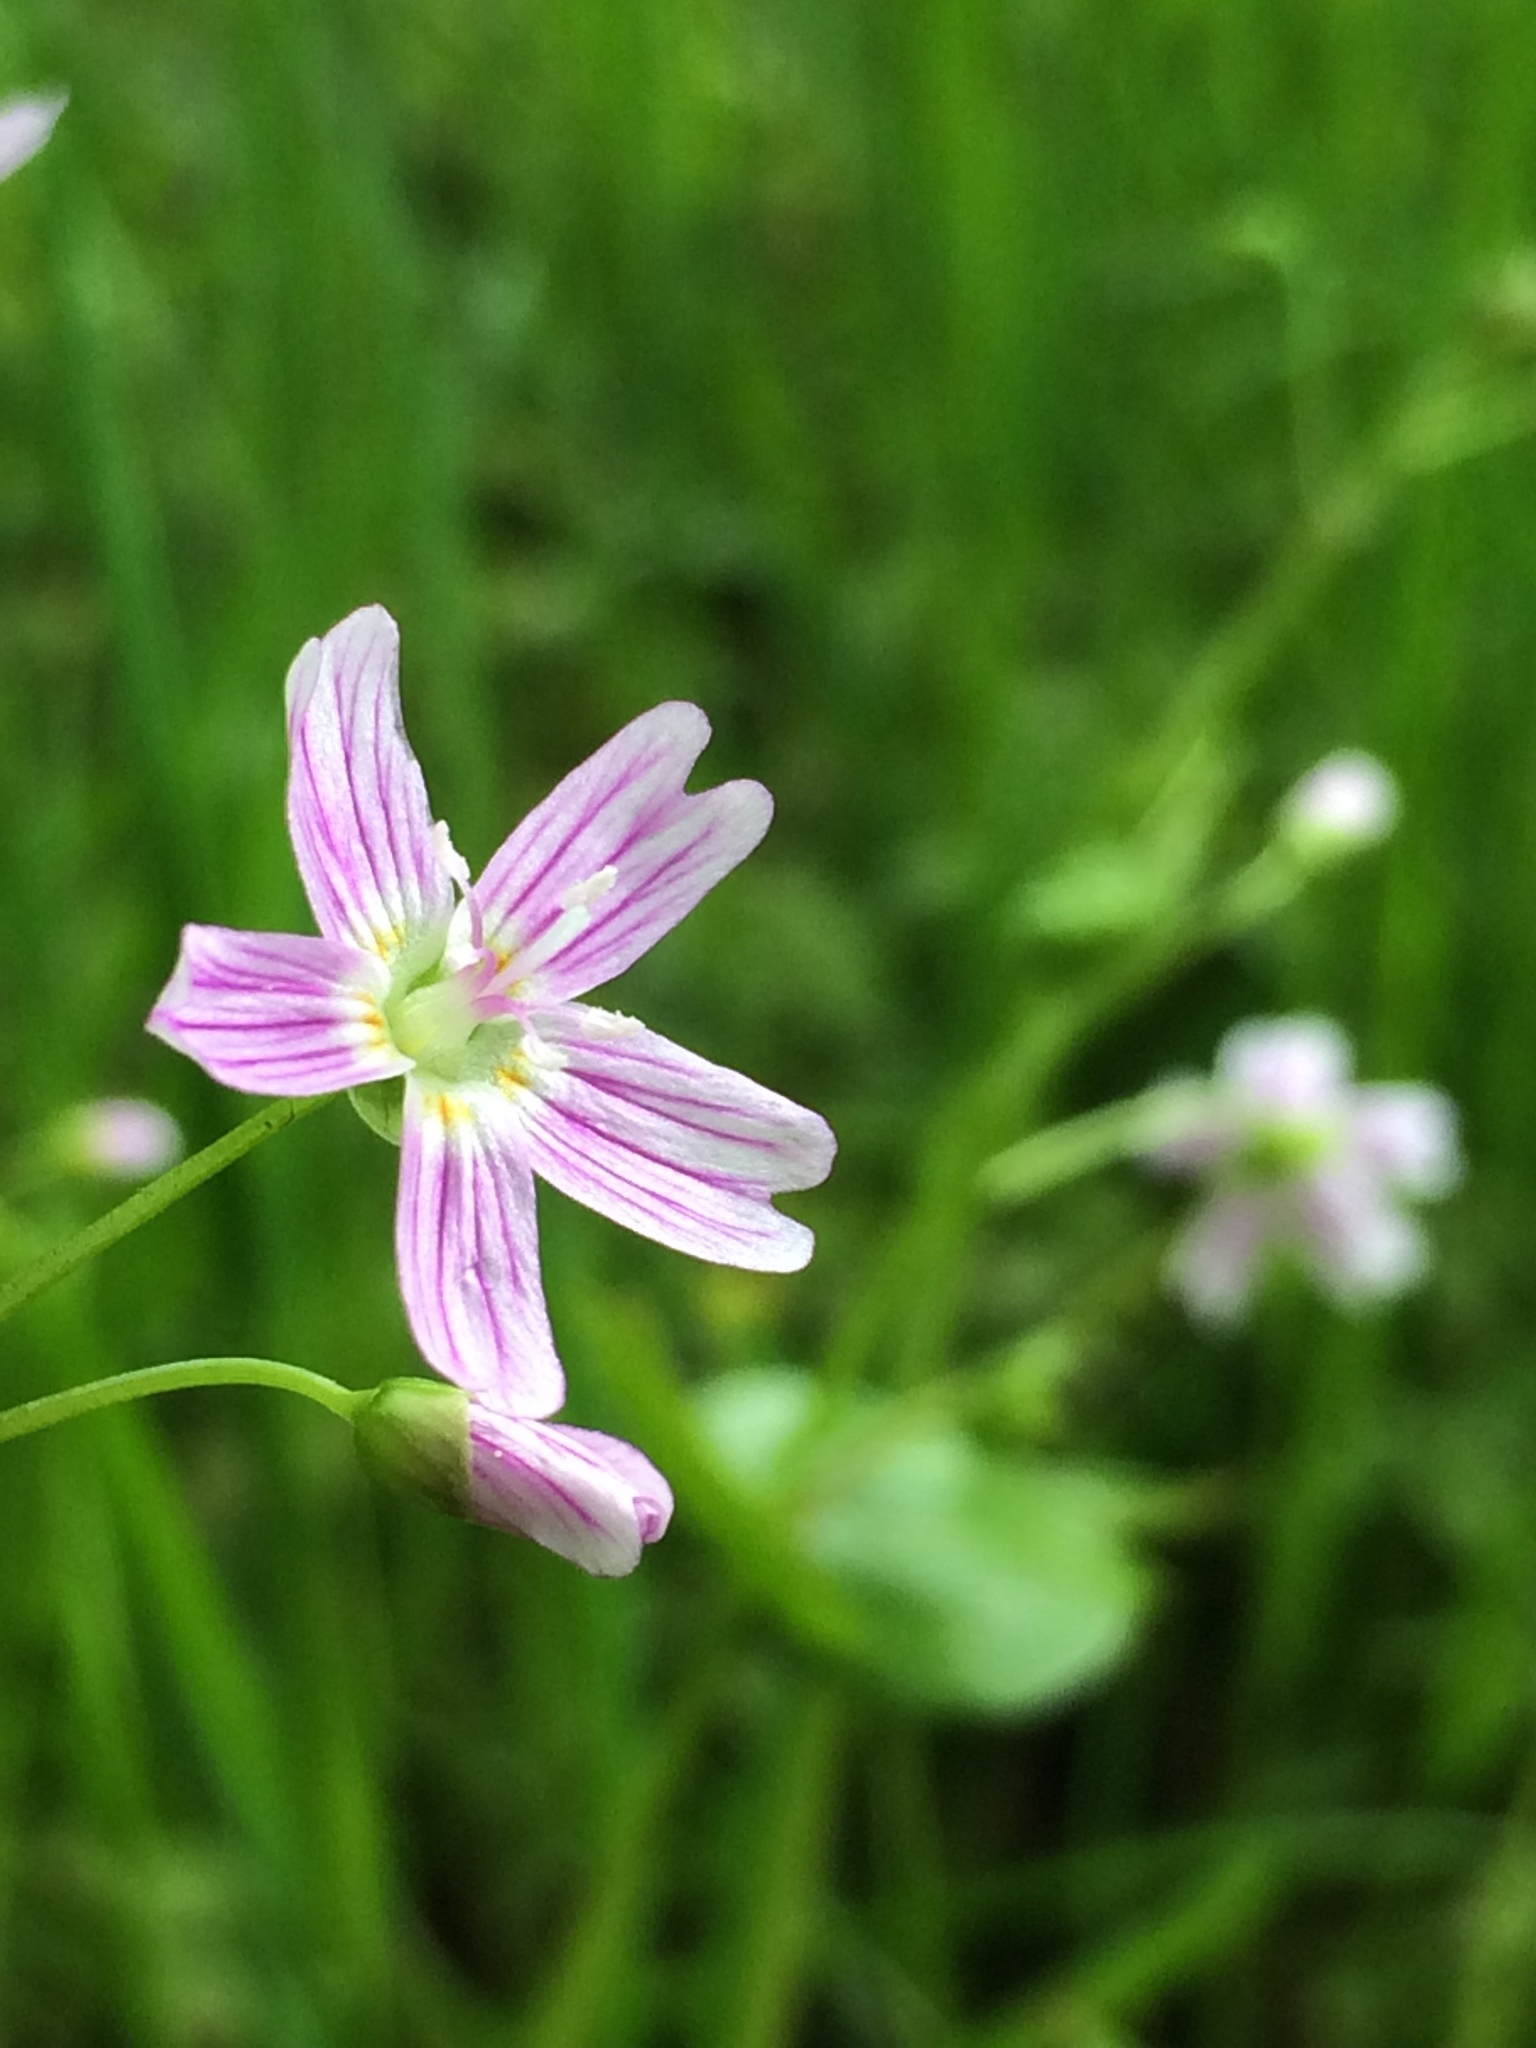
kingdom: Plantae
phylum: Tracheophyta
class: Magnoliopsida
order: Caryophyllales
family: Montiaceae
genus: Claytonia
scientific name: Claytonia sibirica
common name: Pink purslane
